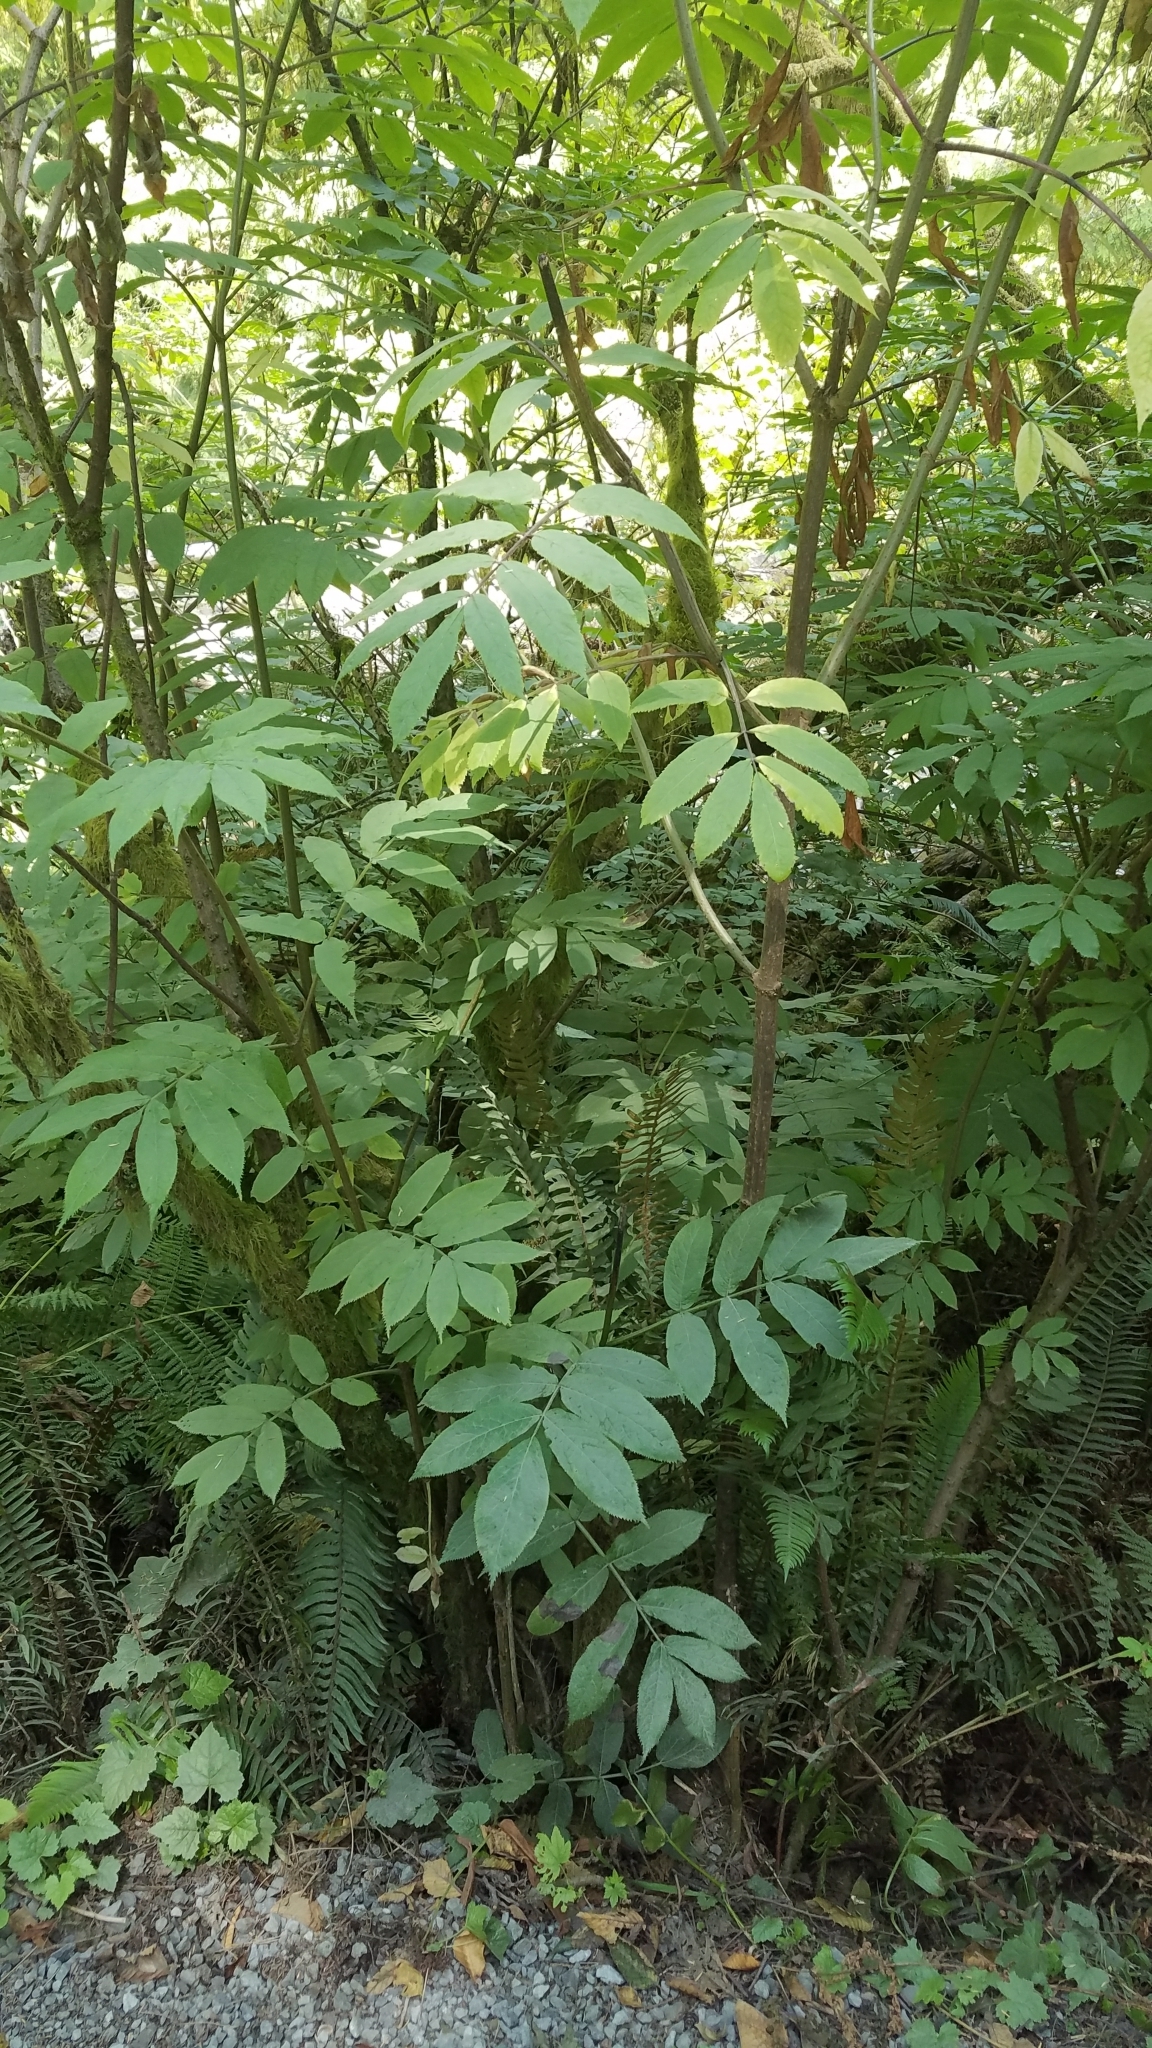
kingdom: Plantae
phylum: Tracheophyta
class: Magnoliopsida
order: Dipsacales
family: Viburnaceae
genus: Sambucus
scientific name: Sambucus racemosa
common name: Red-berried elder
